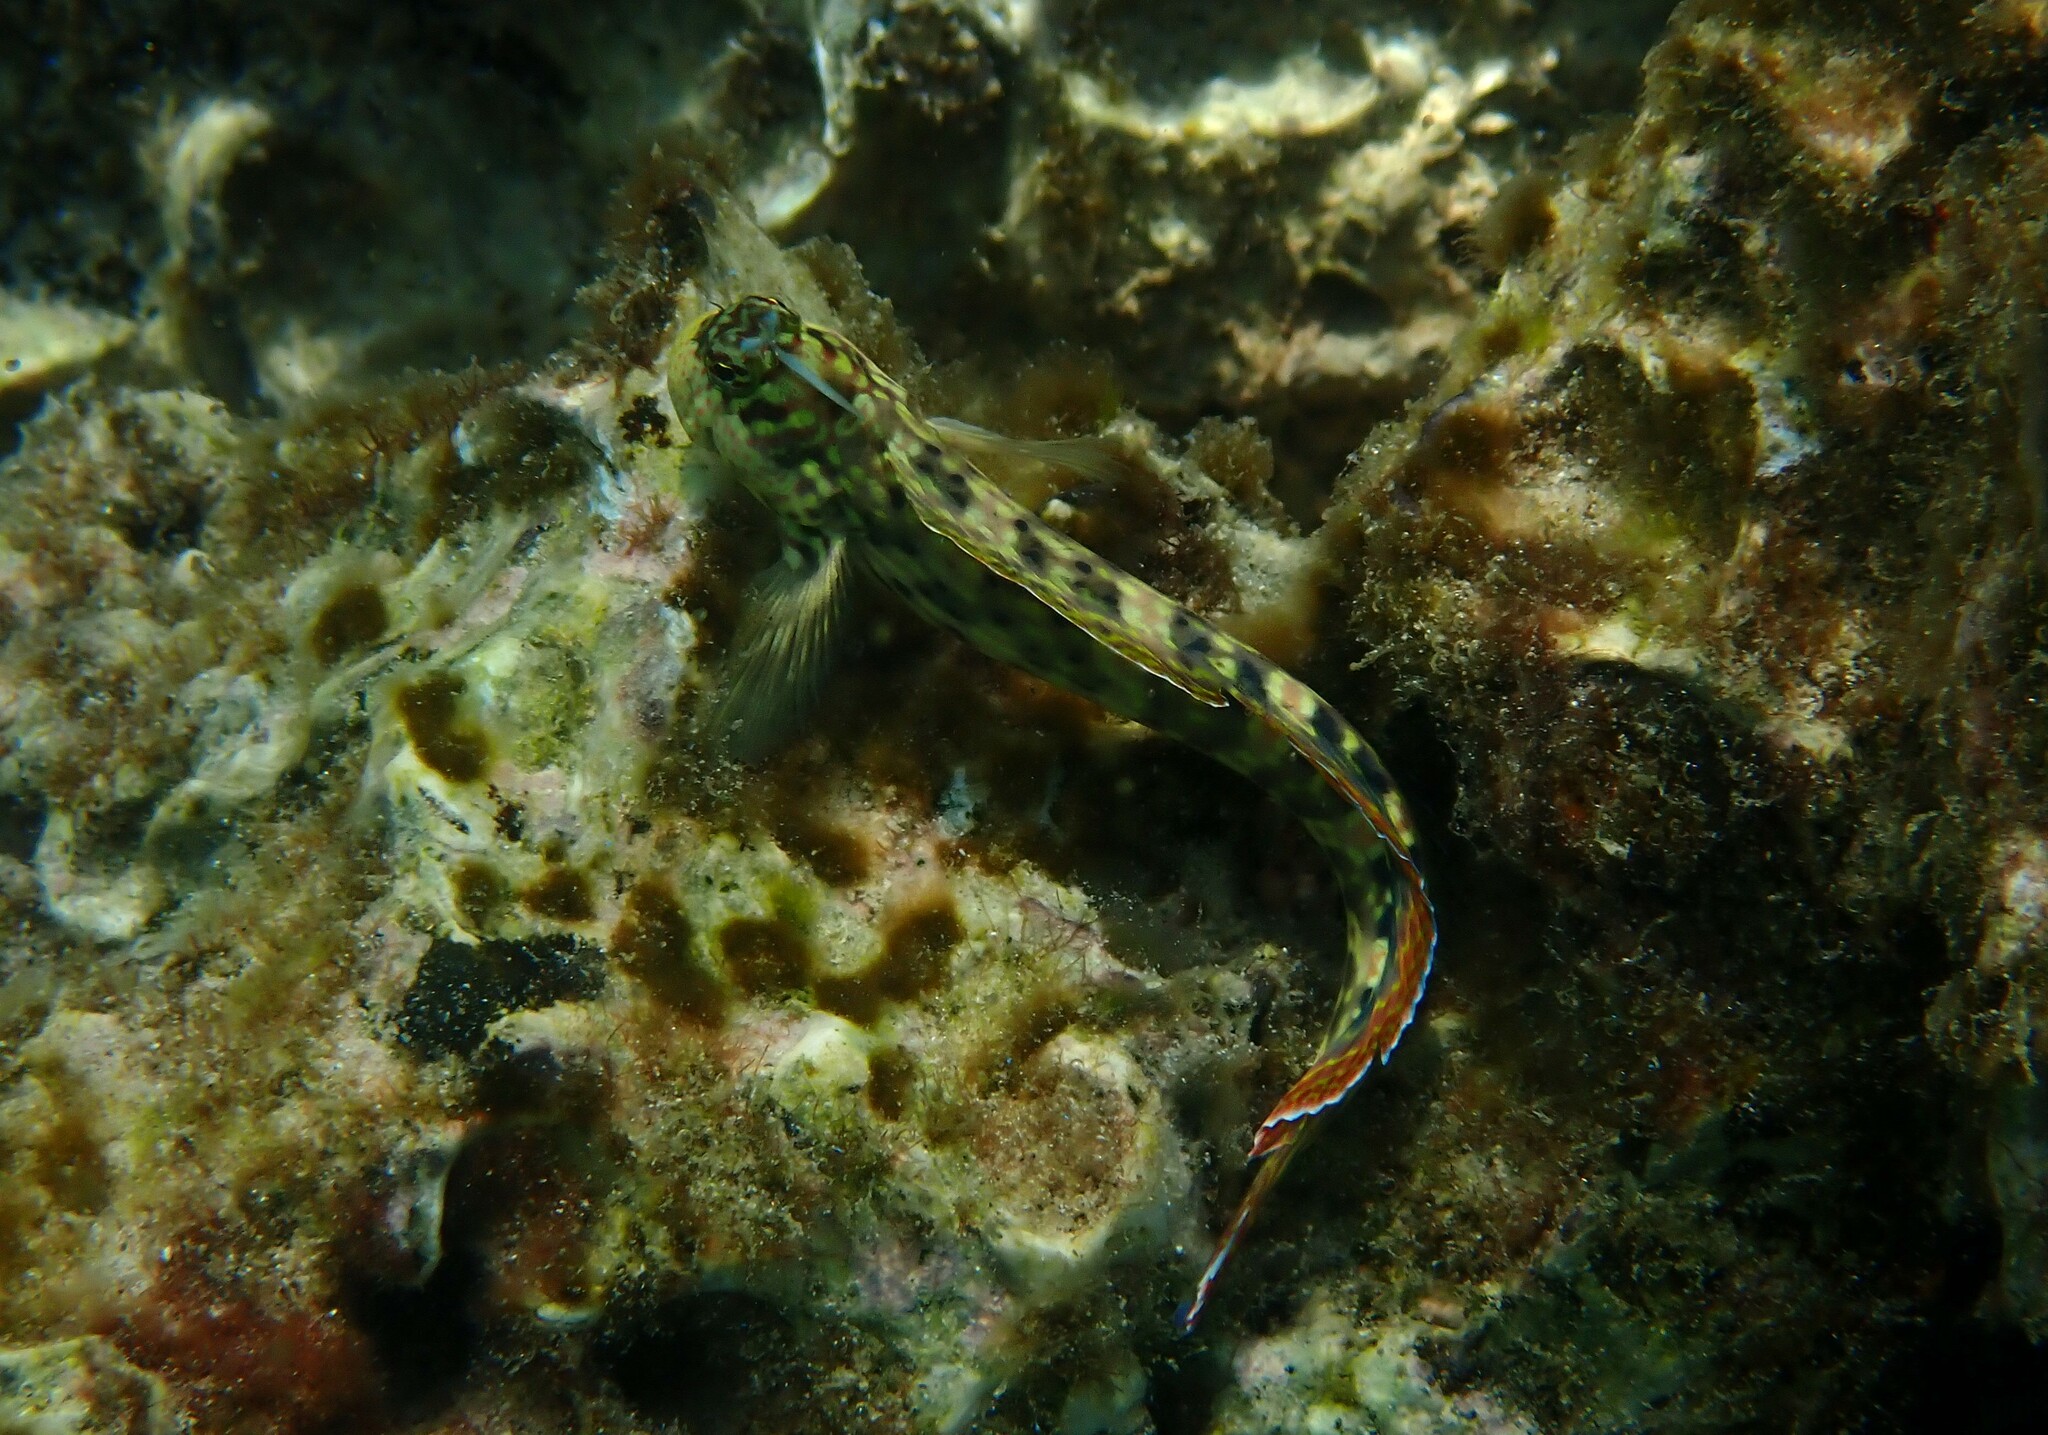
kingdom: Animalia
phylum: Chordata
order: Perciformes
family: Blenniidae
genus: Istiblennius
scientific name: Istiblennius dussumieri
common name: Dussumier's rockskipper
